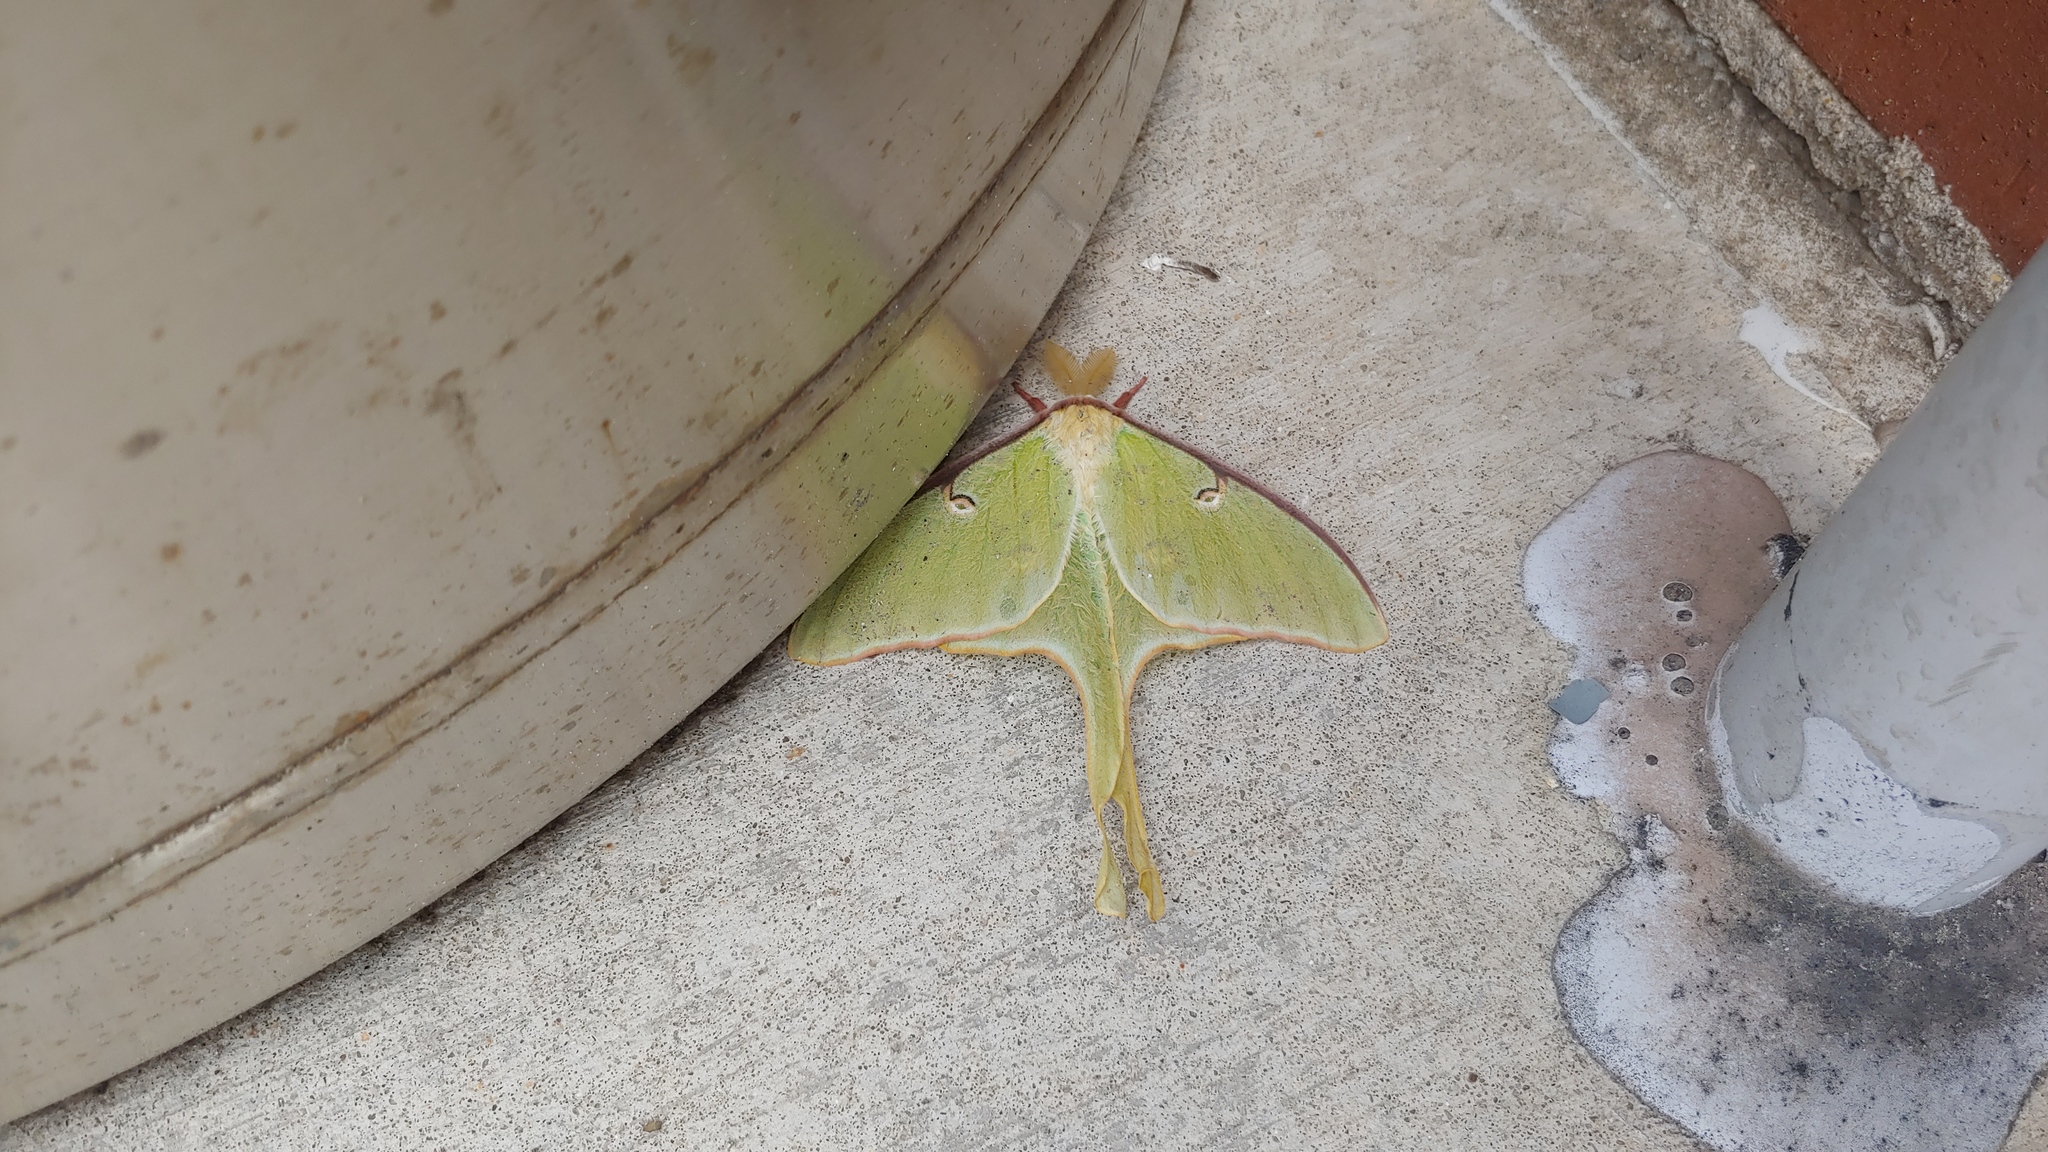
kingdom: Animalia
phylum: Arthropoda
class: Insecta
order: Lepidoptera
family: Saturniidae
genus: Actias
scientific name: Actias luna
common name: Luna moth
